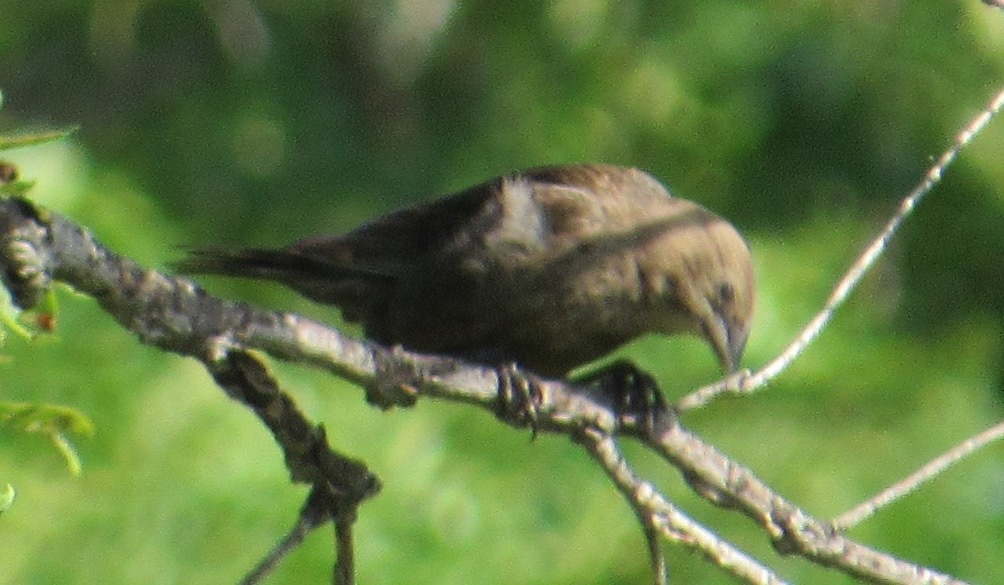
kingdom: Animalia
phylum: Chordata
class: Aves
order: Passeriformes
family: Icteridae
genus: Molothrus
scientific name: Molothrus ater
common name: Brown-headed cowbird
